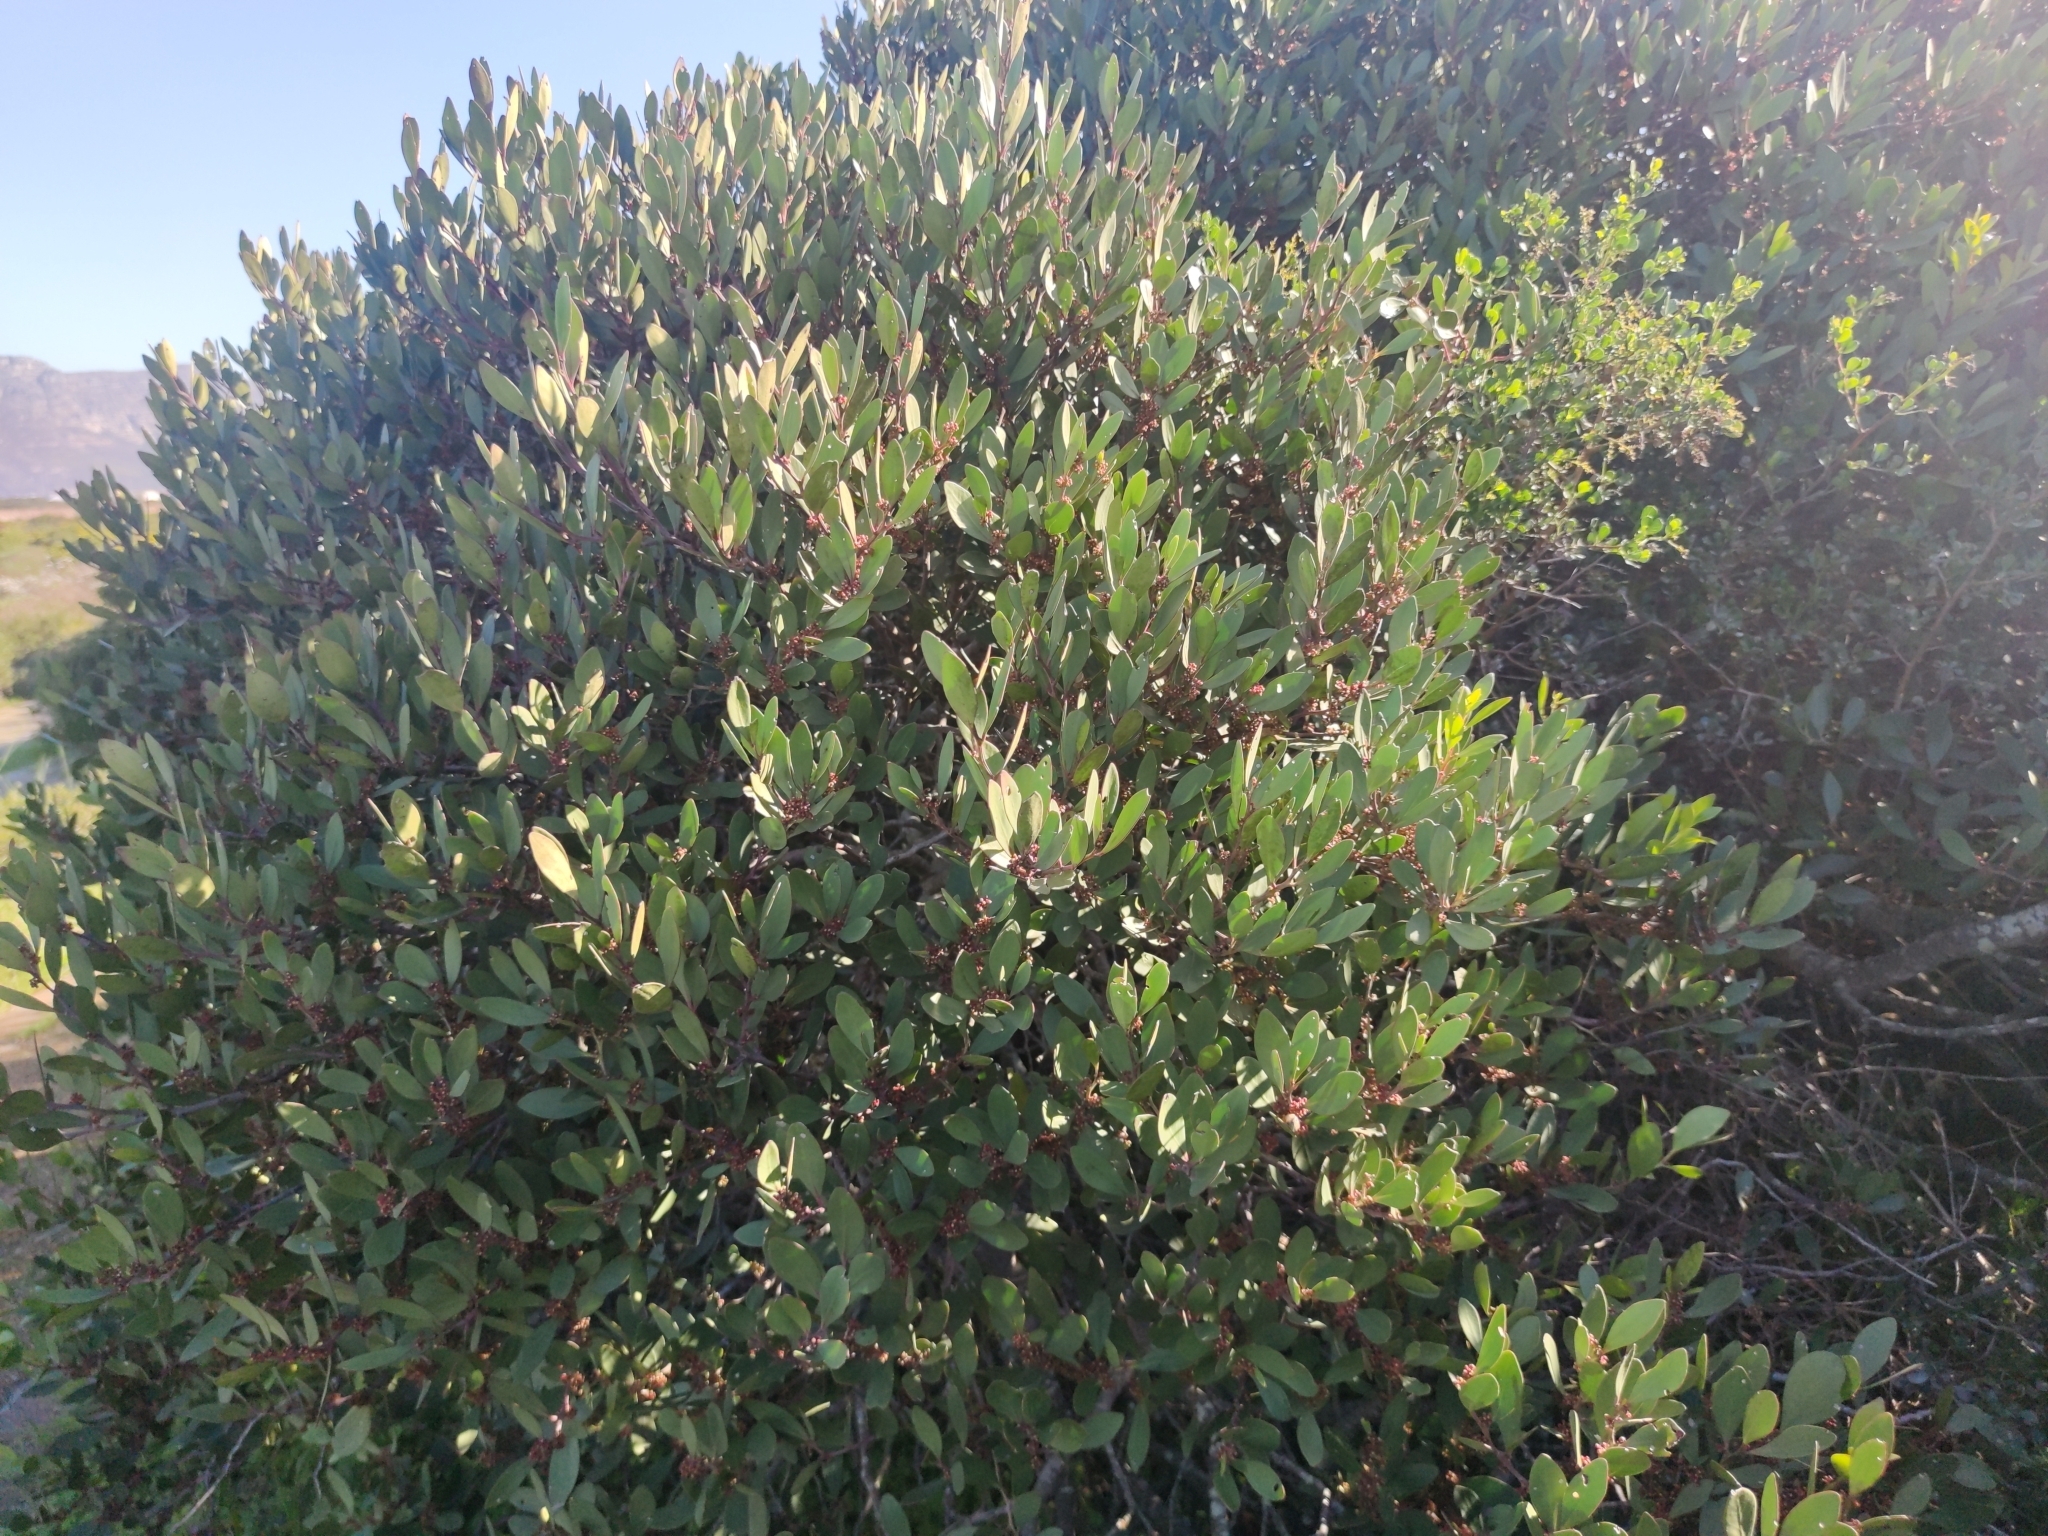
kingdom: Plantae
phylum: Tracheophyta
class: Magnoliopsida
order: Celastrales
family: Celastraceae
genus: Pterocelastrus
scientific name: Pterocelastrus tricuspidatus
